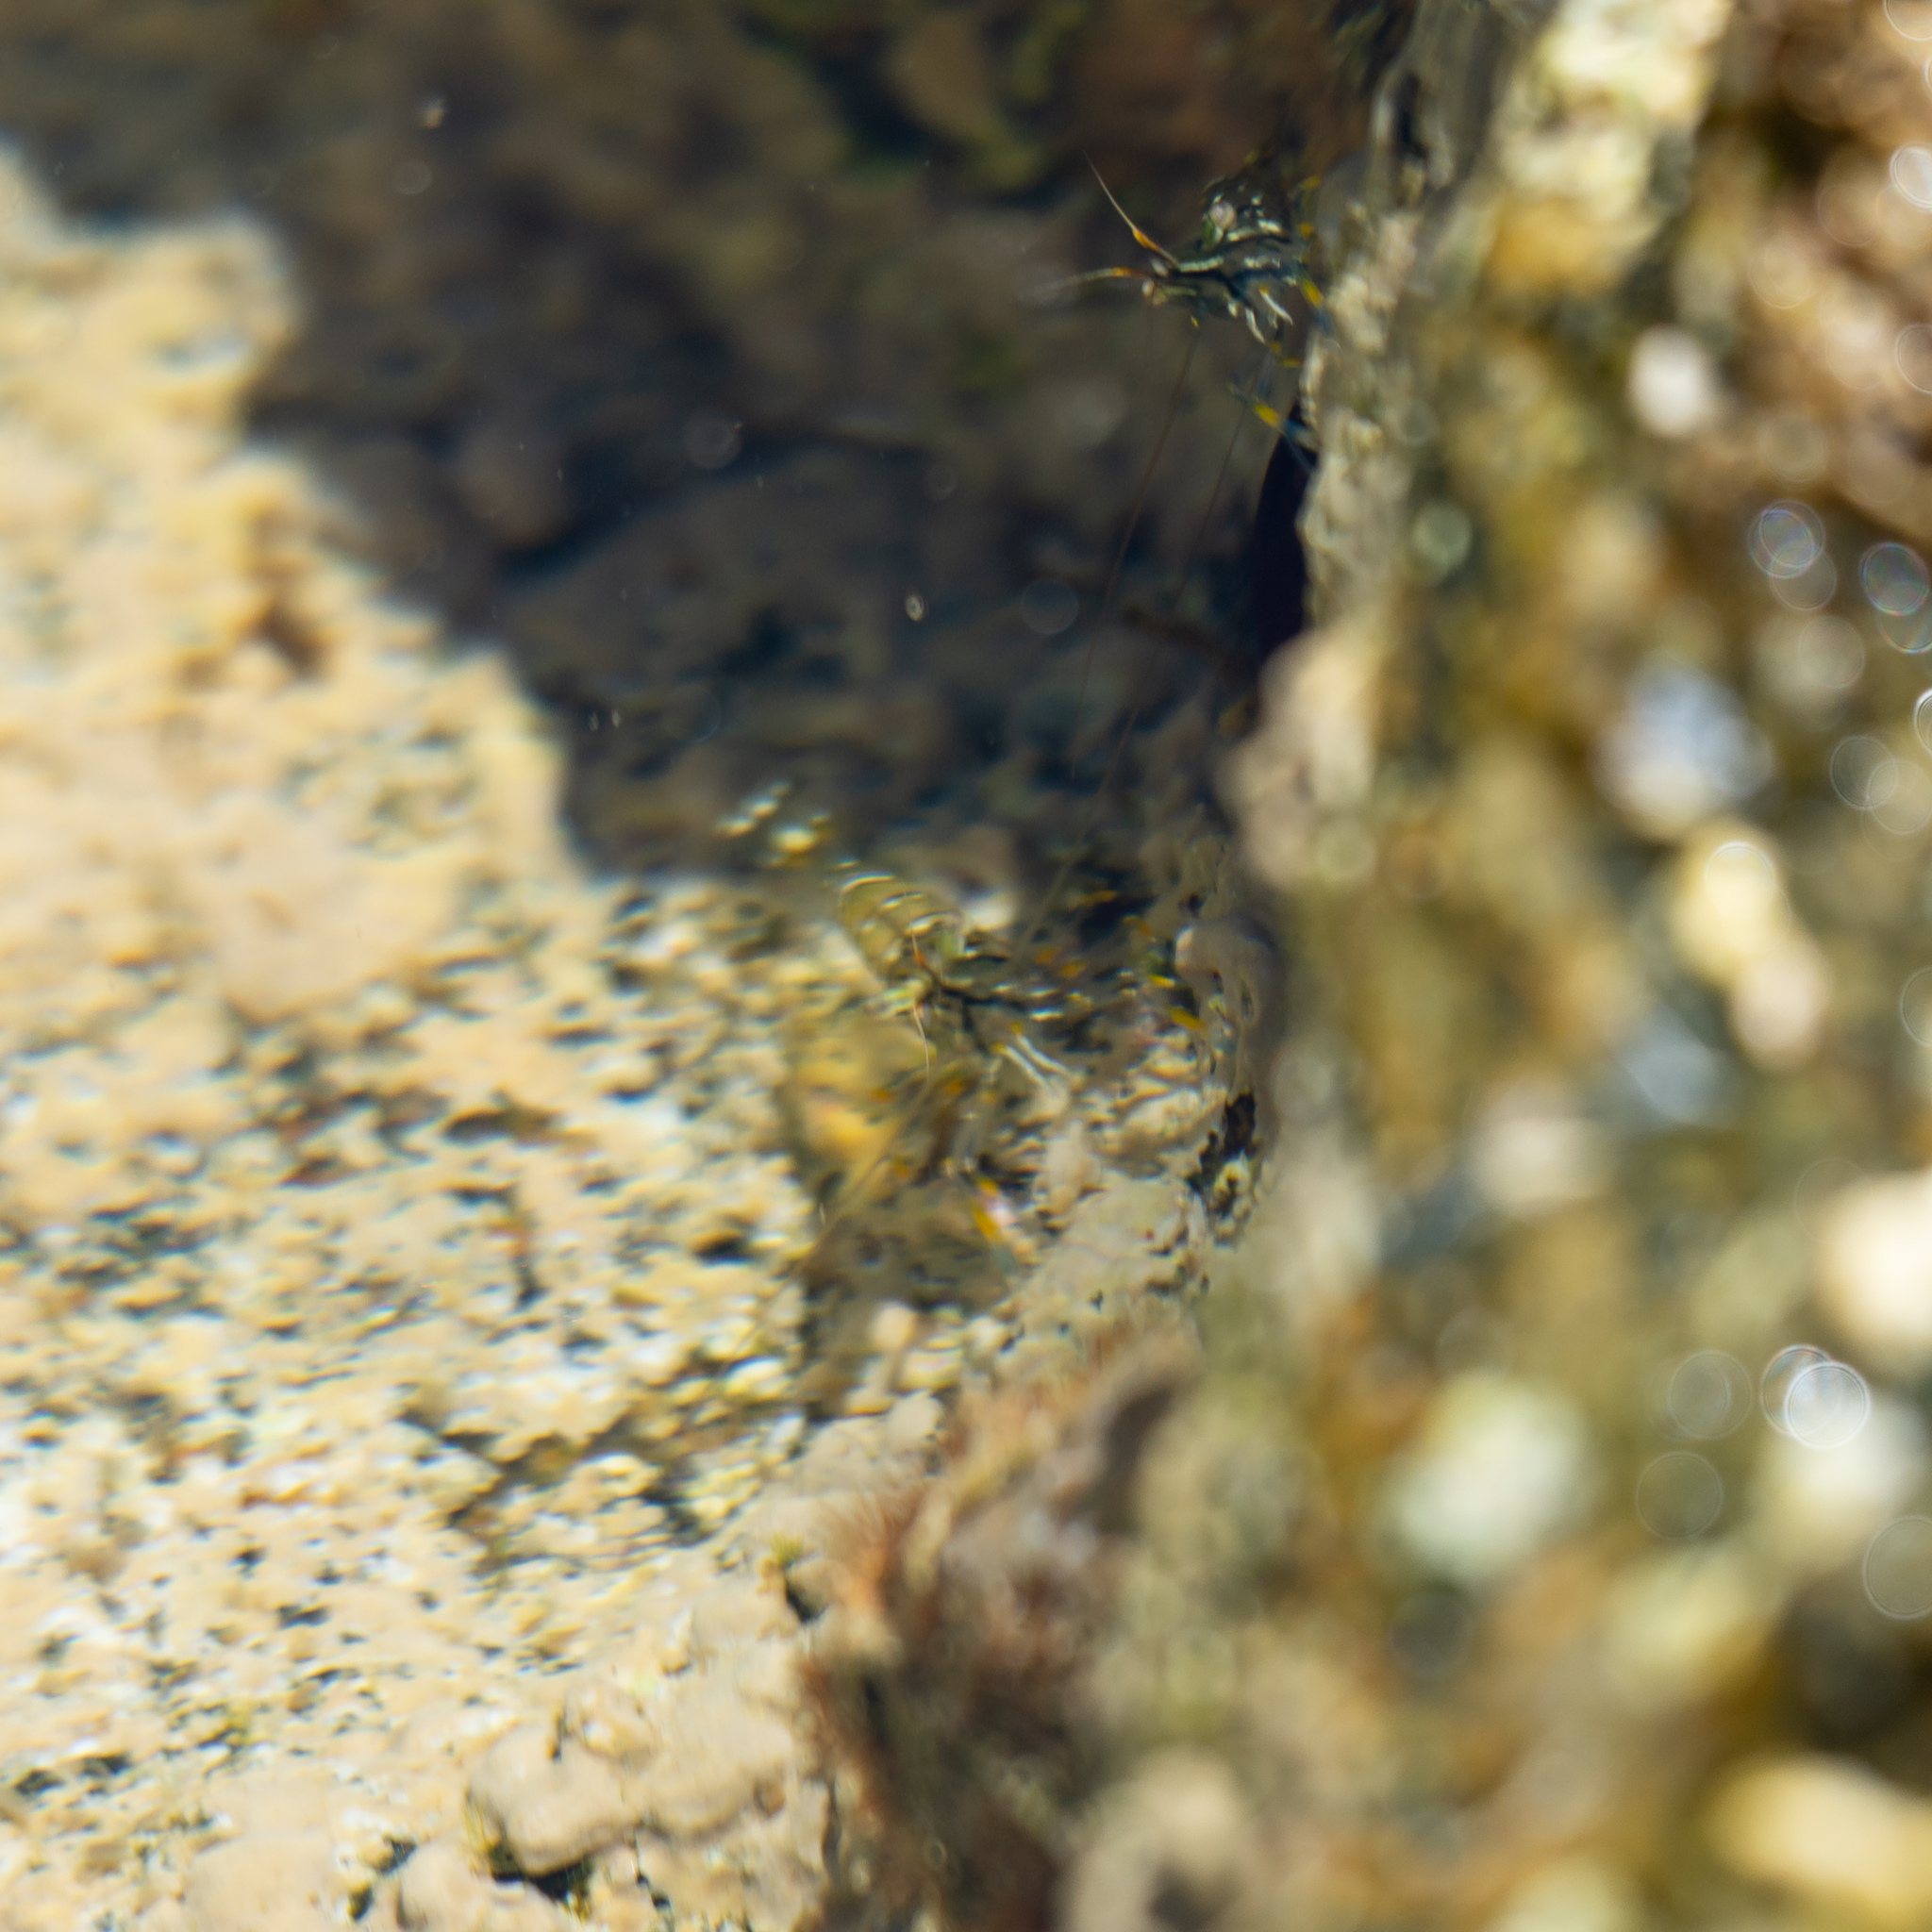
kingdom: Animalia
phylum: Arthropoda
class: Malacostraca
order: Decapoda
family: Palaemonidae
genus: Palaemon
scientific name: Palaemon elegans
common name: Grass prawm
